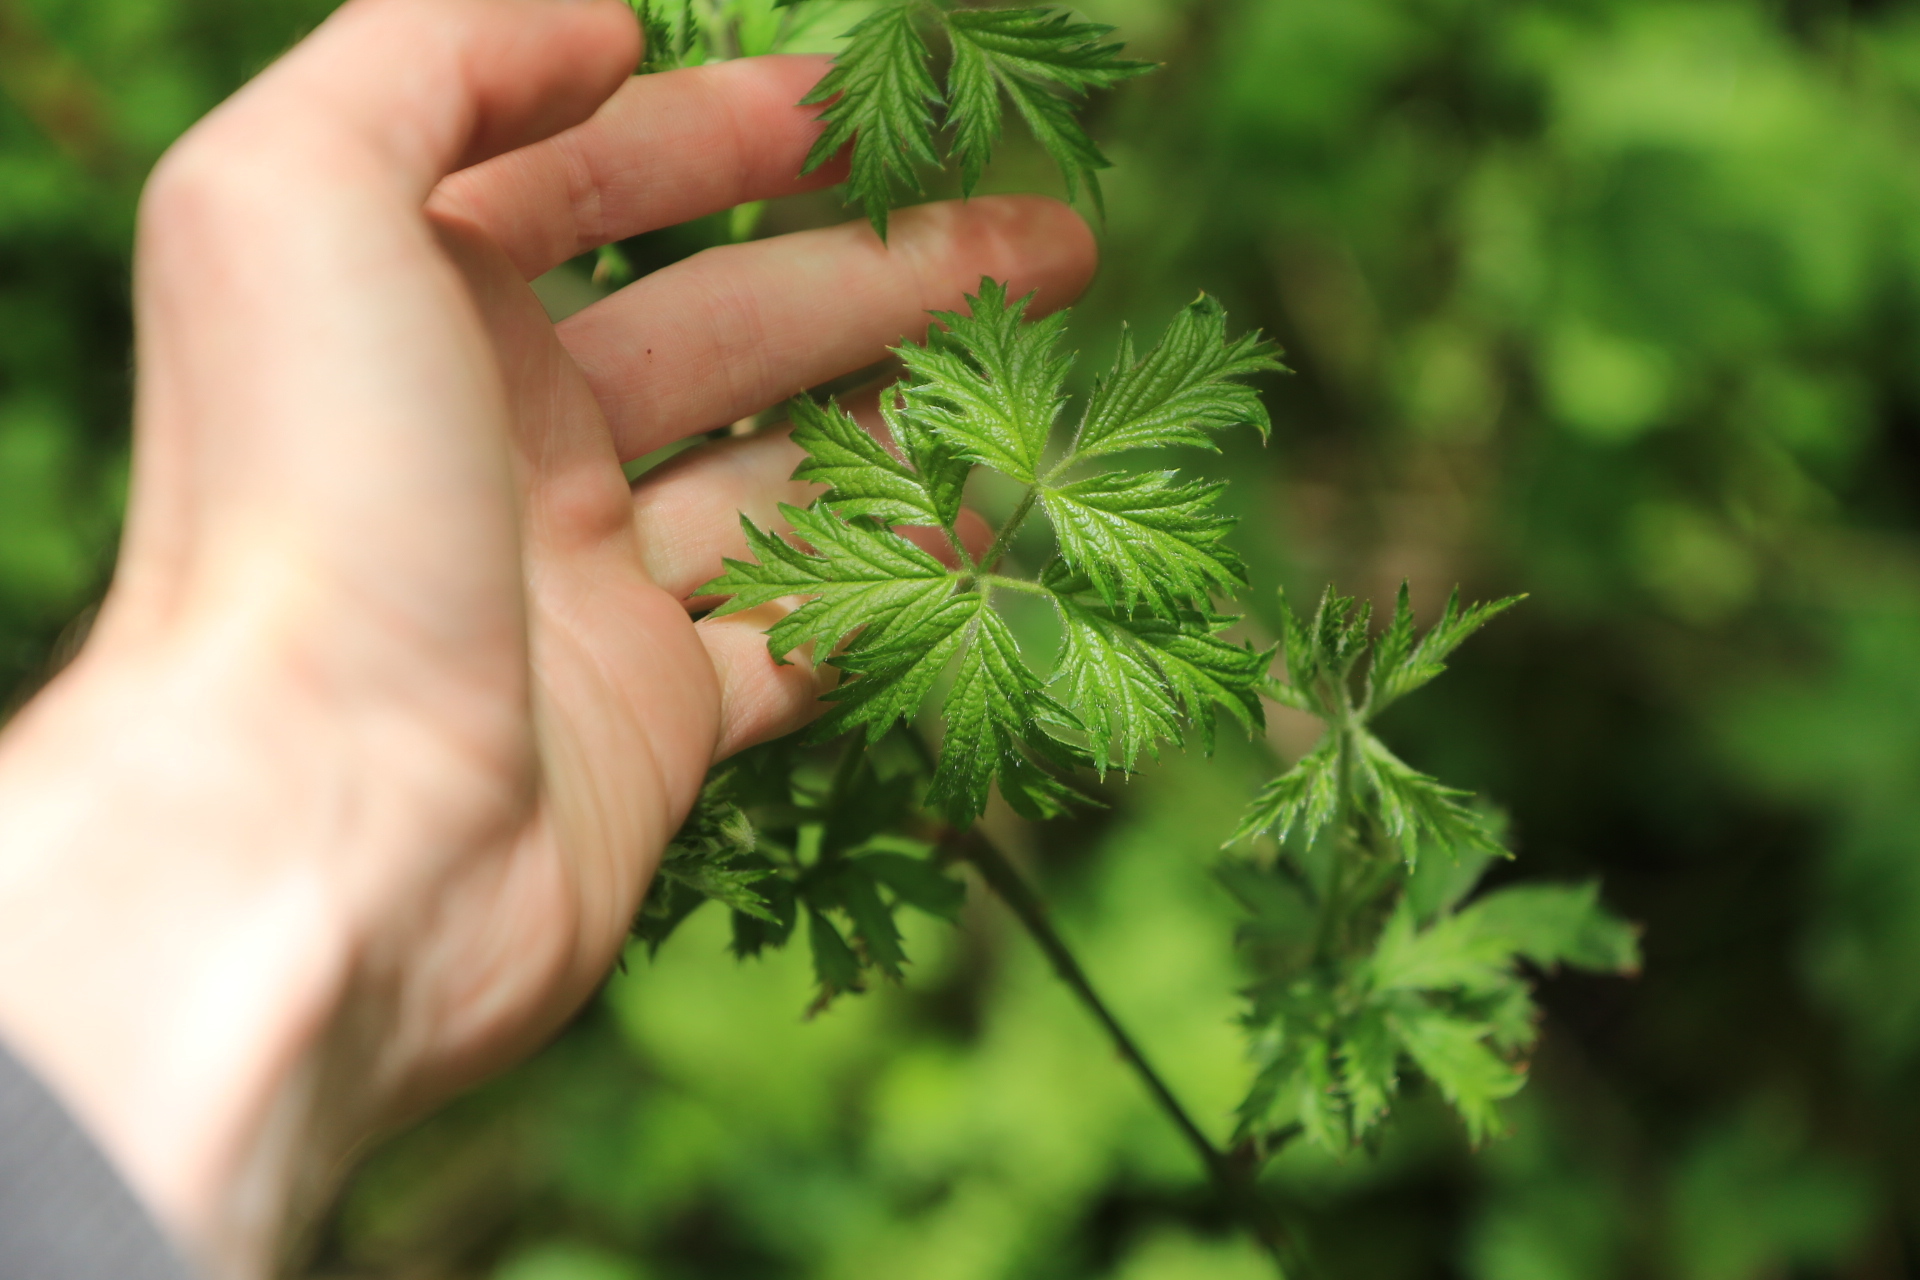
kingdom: Plantae
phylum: Tracheophyta
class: Magnoliopsida
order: Rosales
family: Rosaceae
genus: Rubus
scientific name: Rubus laciniatus
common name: Evergreen blackberry
